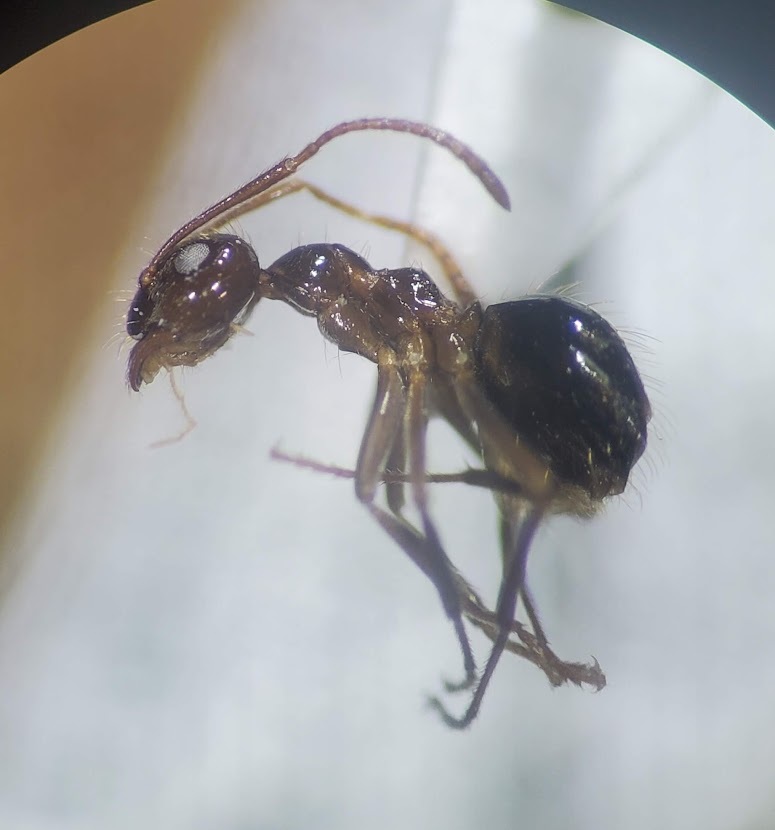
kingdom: Animalia
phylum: Arthropoda
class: Insecta
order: Hymenoptera
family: Formicidae
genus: Prenolepis
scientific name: Prenolepis imparis
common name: Small honey ant
